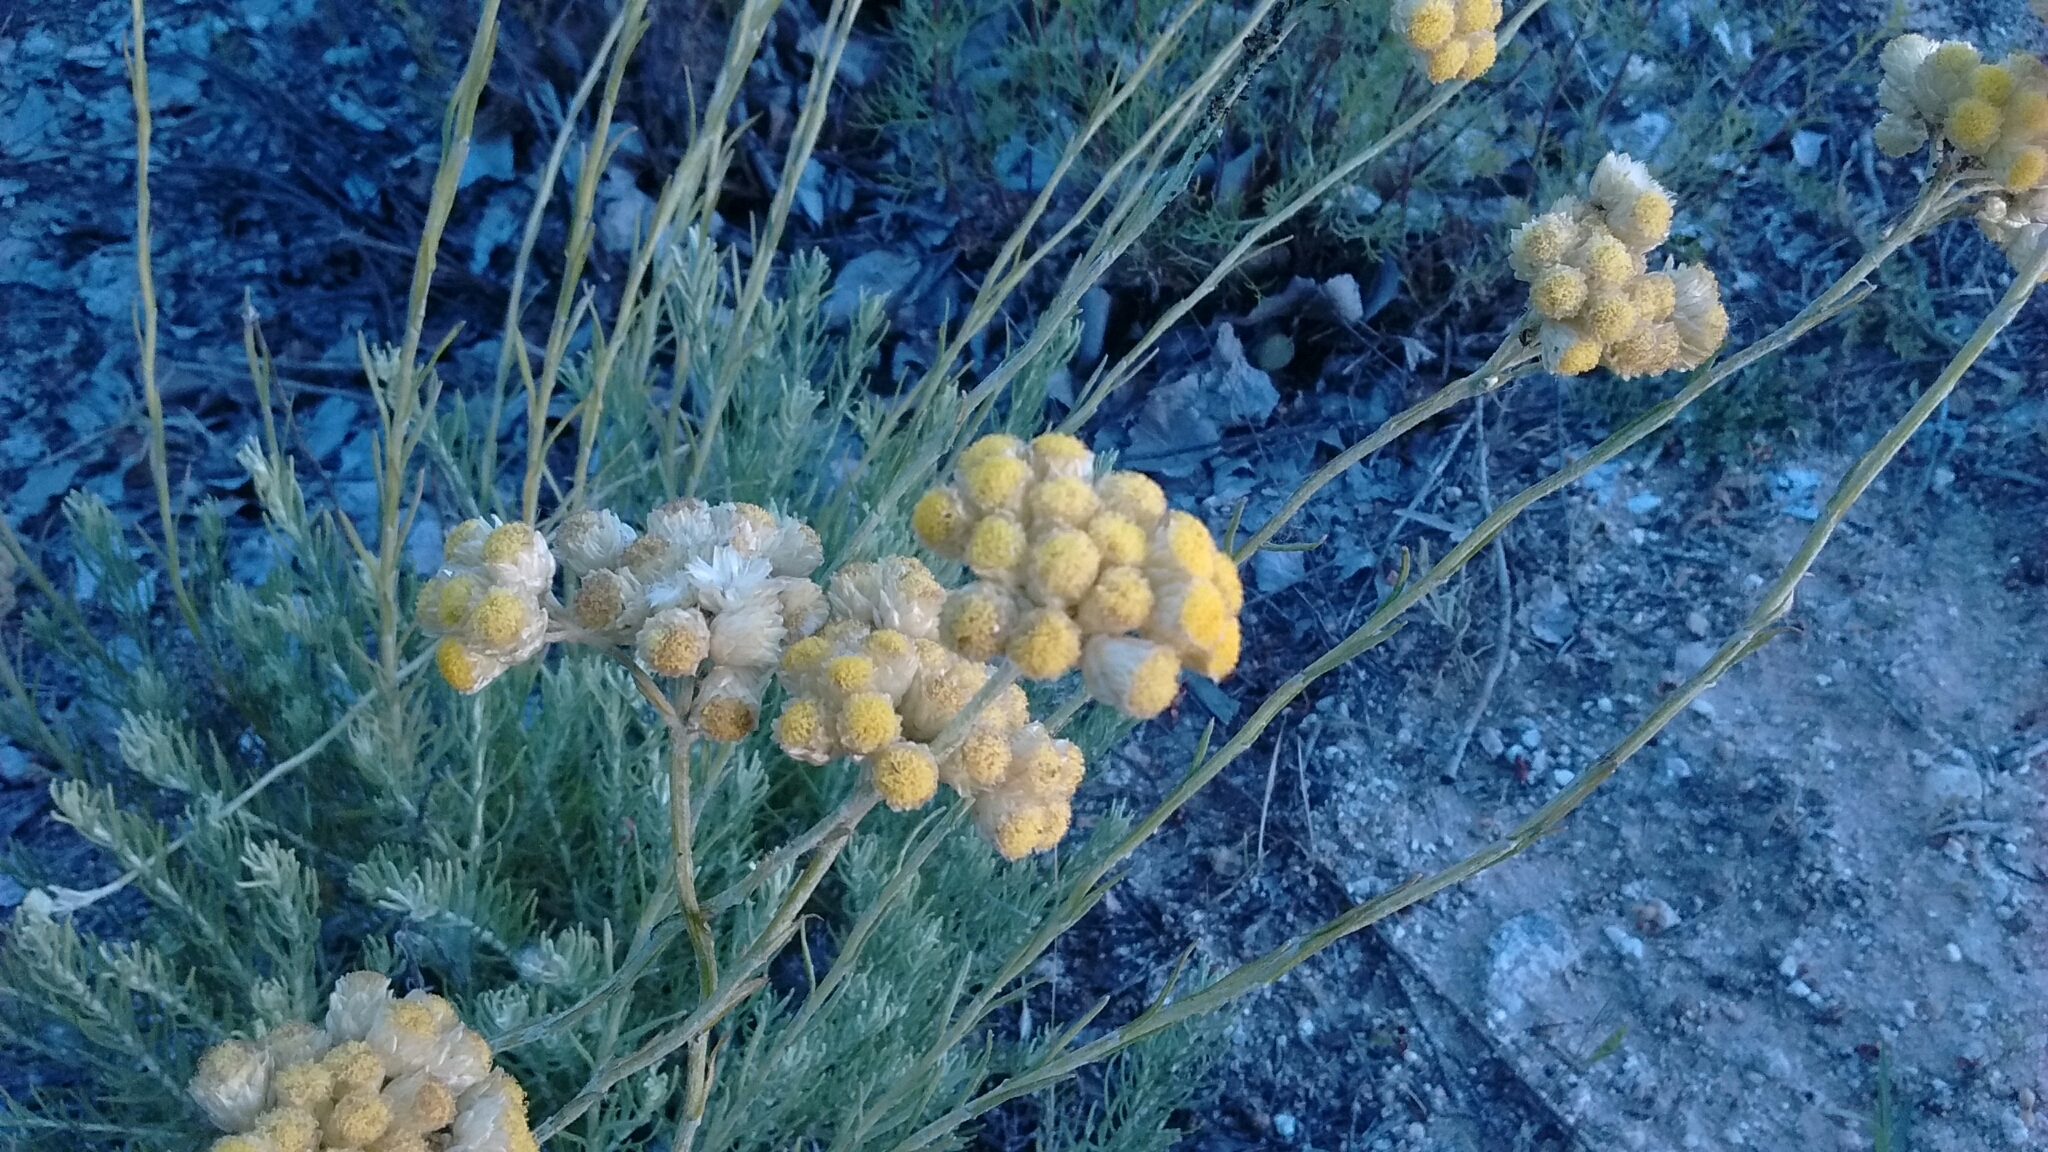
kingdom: Plantae
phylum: Tracheophyta
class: Magnoliopsida
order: Asterales
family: Asteraceae
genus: Helichrysum
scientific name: Helichrysum stoechas
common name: Goldilocks
